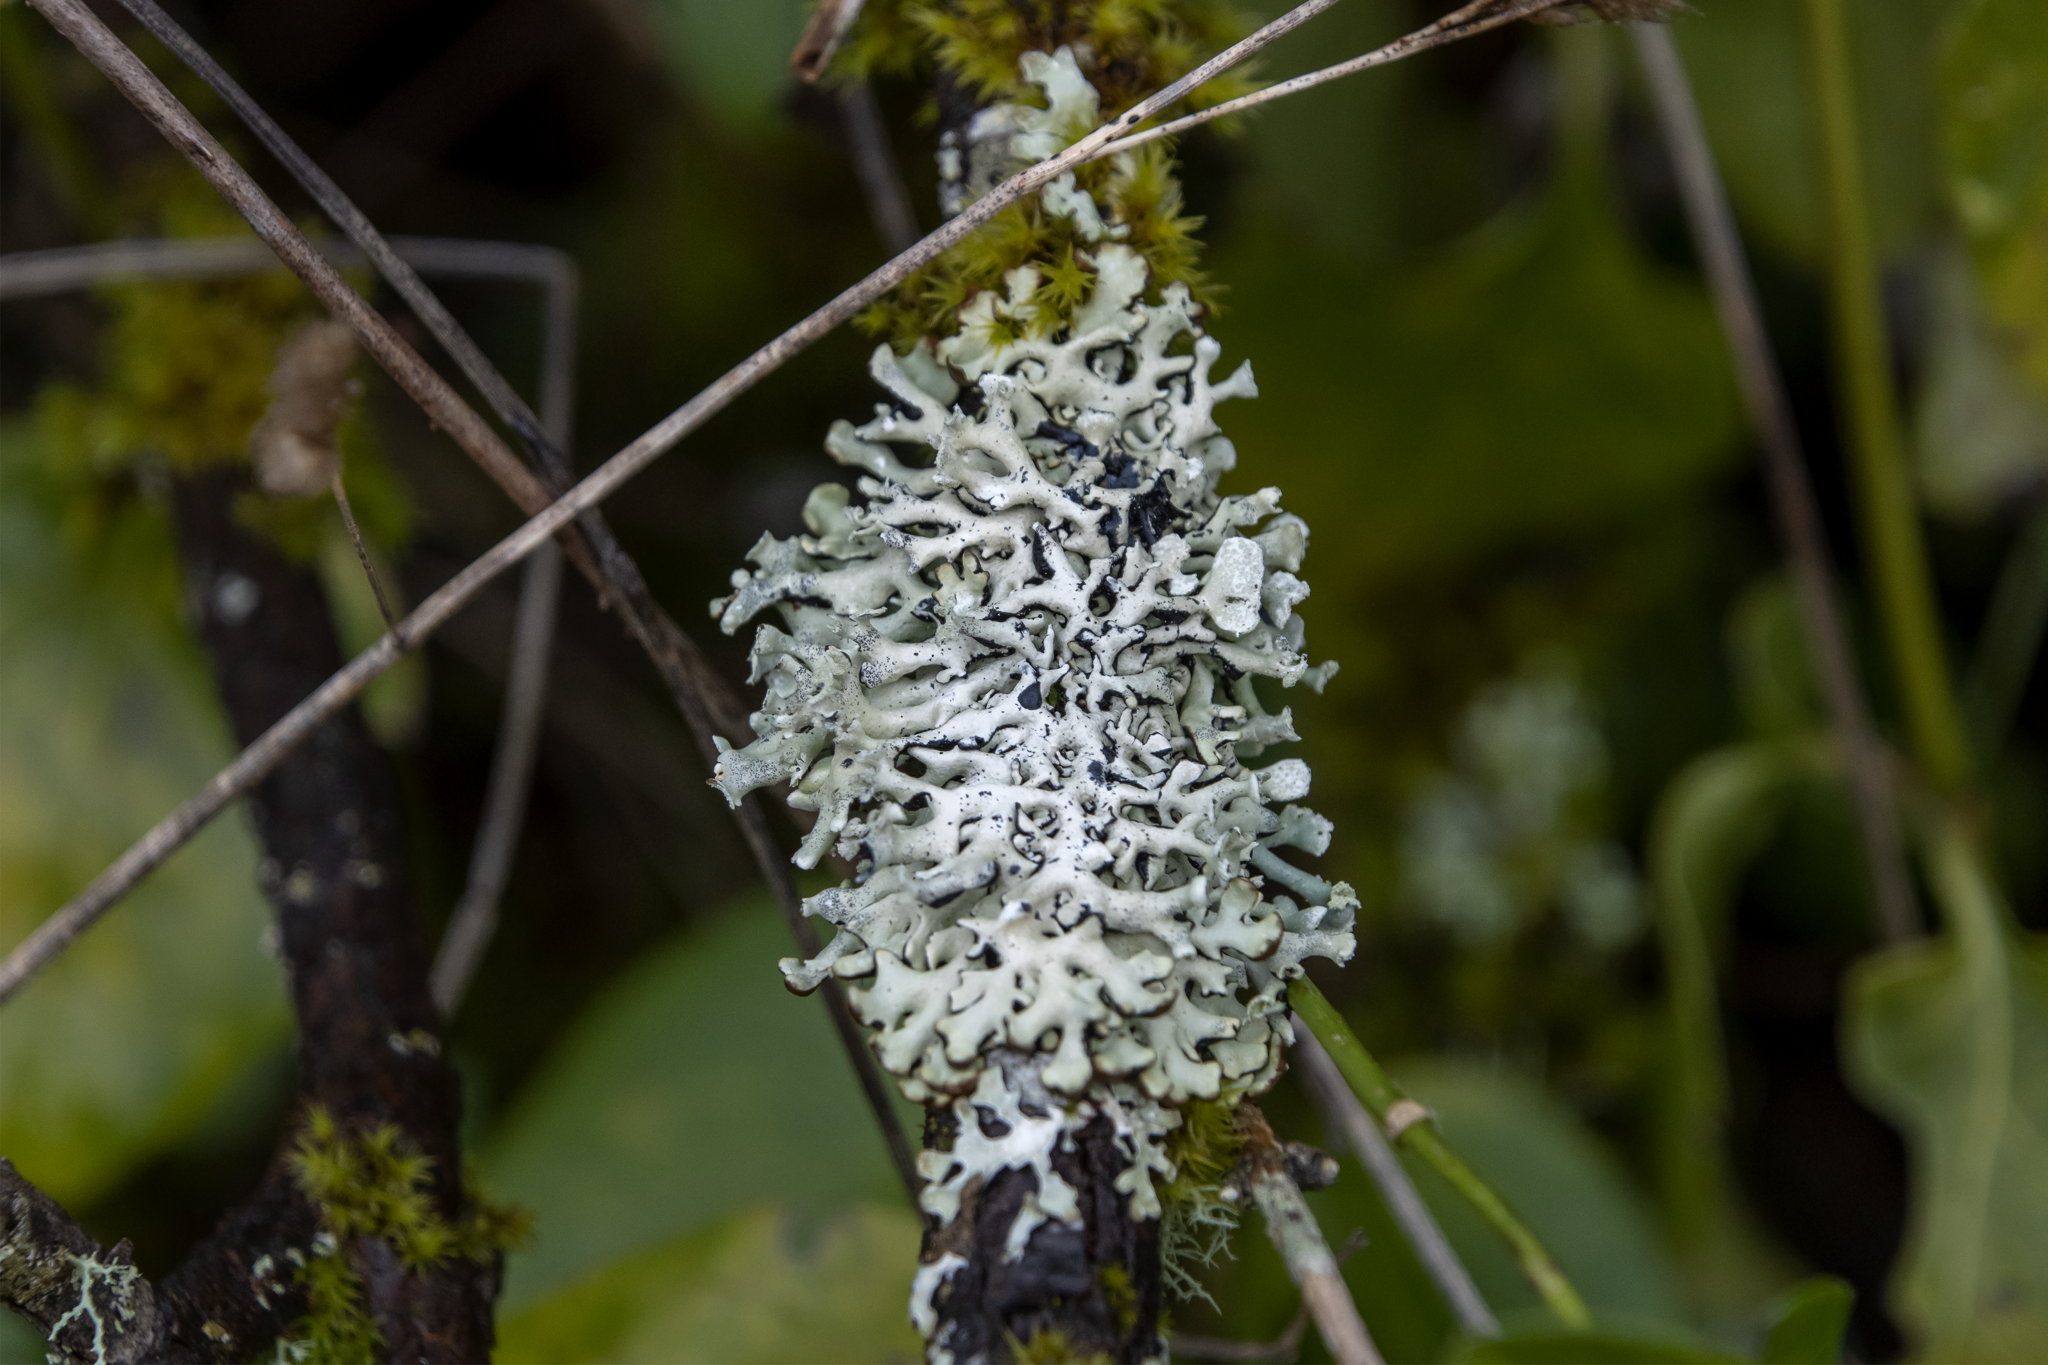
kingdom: Fungi
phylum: Ascomycota
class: Lecanoromycetes
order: Lecanorales
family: Parmeliaceae
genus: Hypogymnia
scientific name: Hypogymnia physodes
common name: Dark crottle
